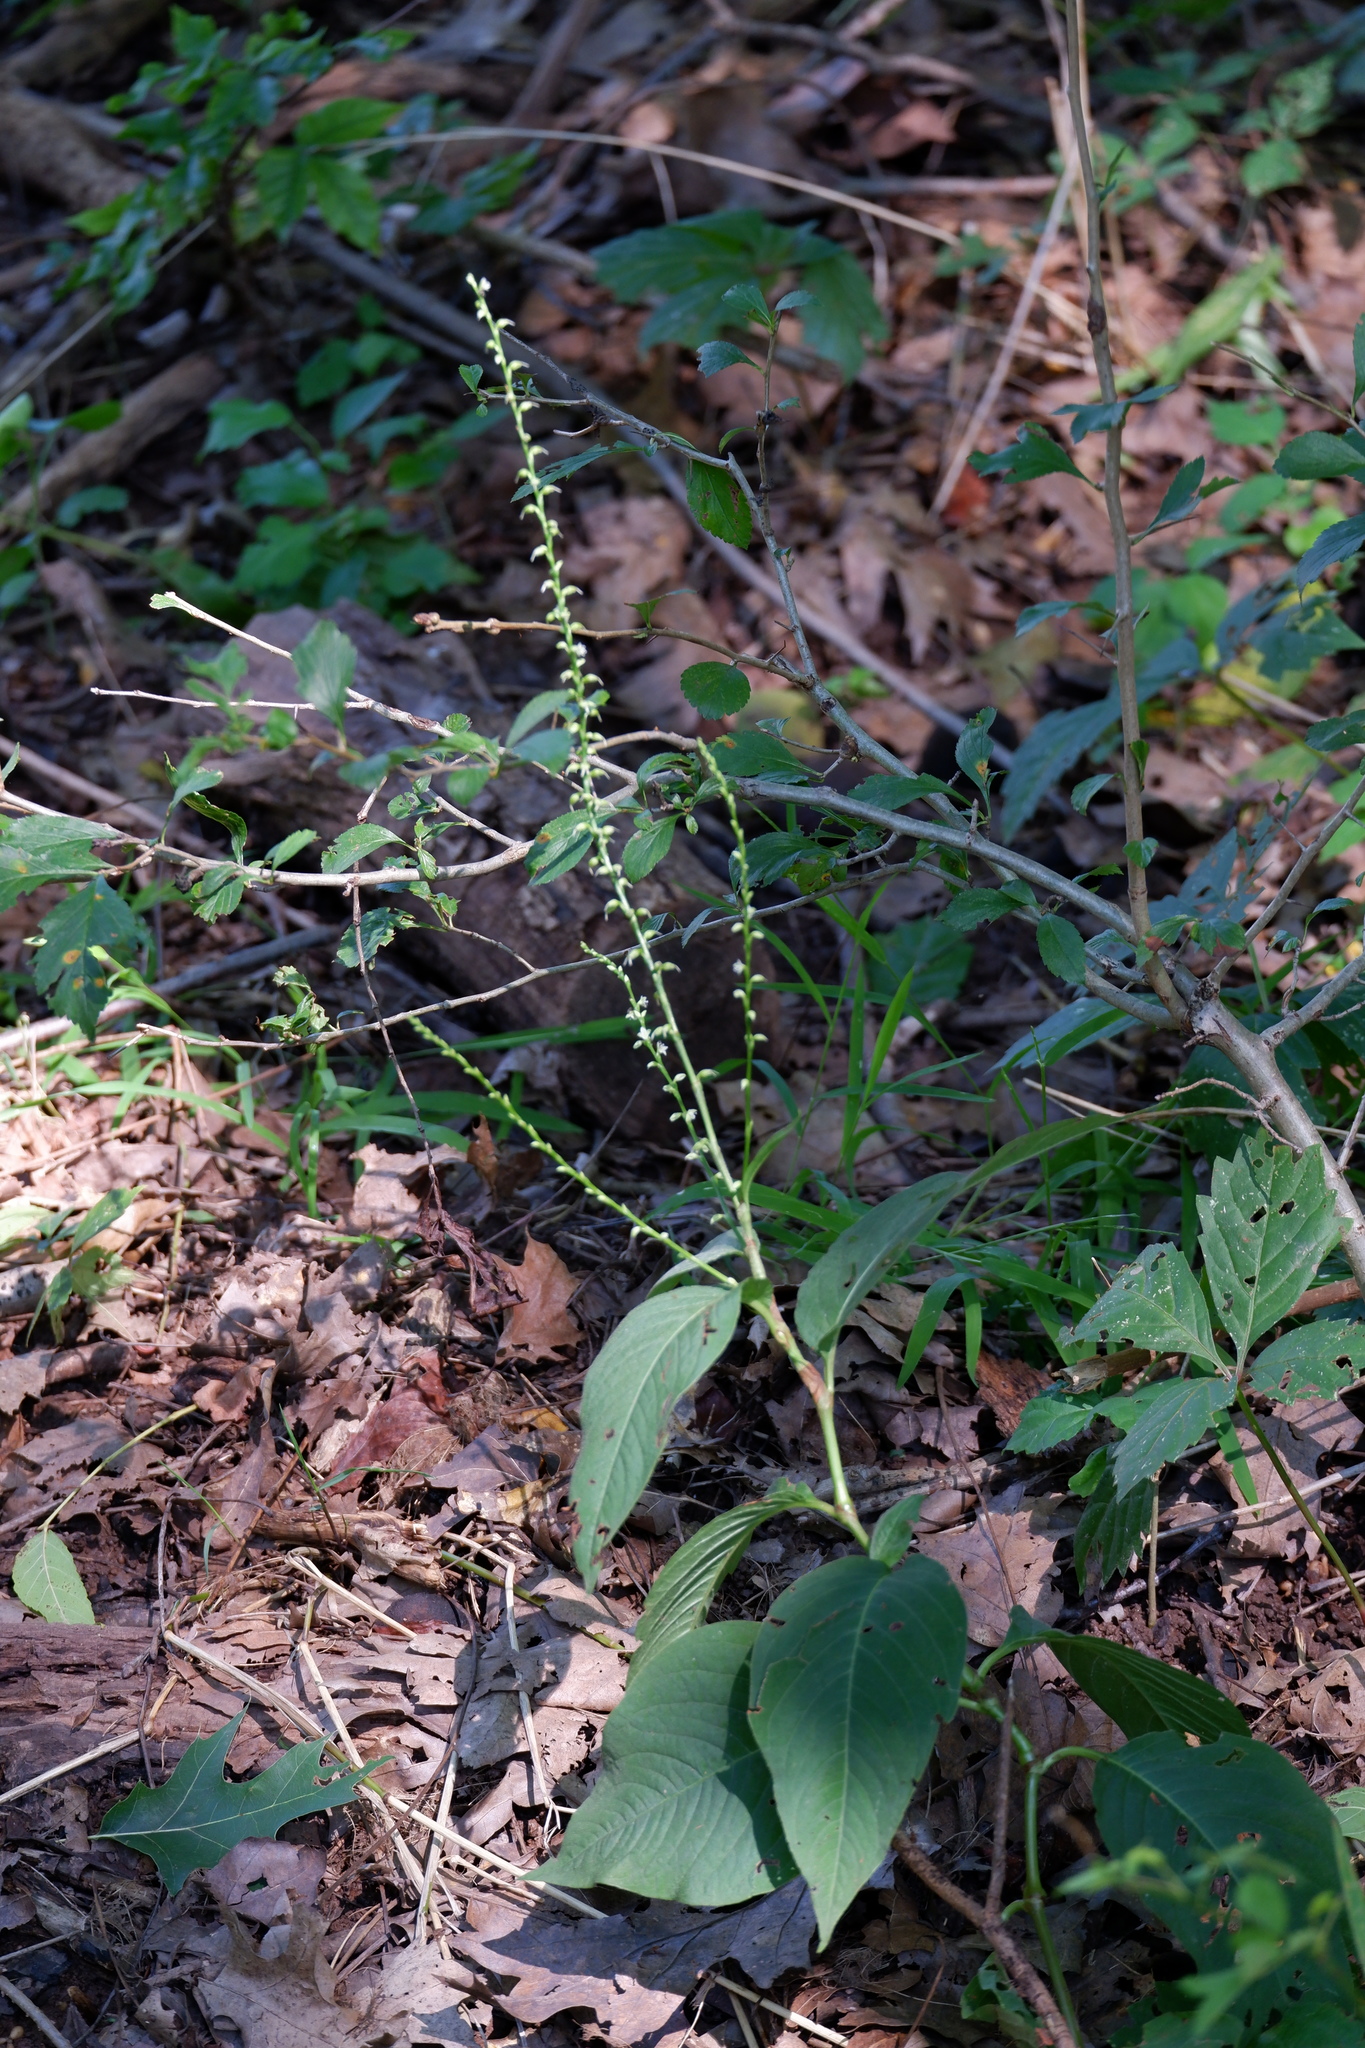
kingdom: Plantae
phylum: Tracheophyta
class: Magnoliopsida
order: Caryophyllales
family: Polygonaceae
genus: Persicaria
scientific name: Persicaria virginiana
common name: Jumpseed
